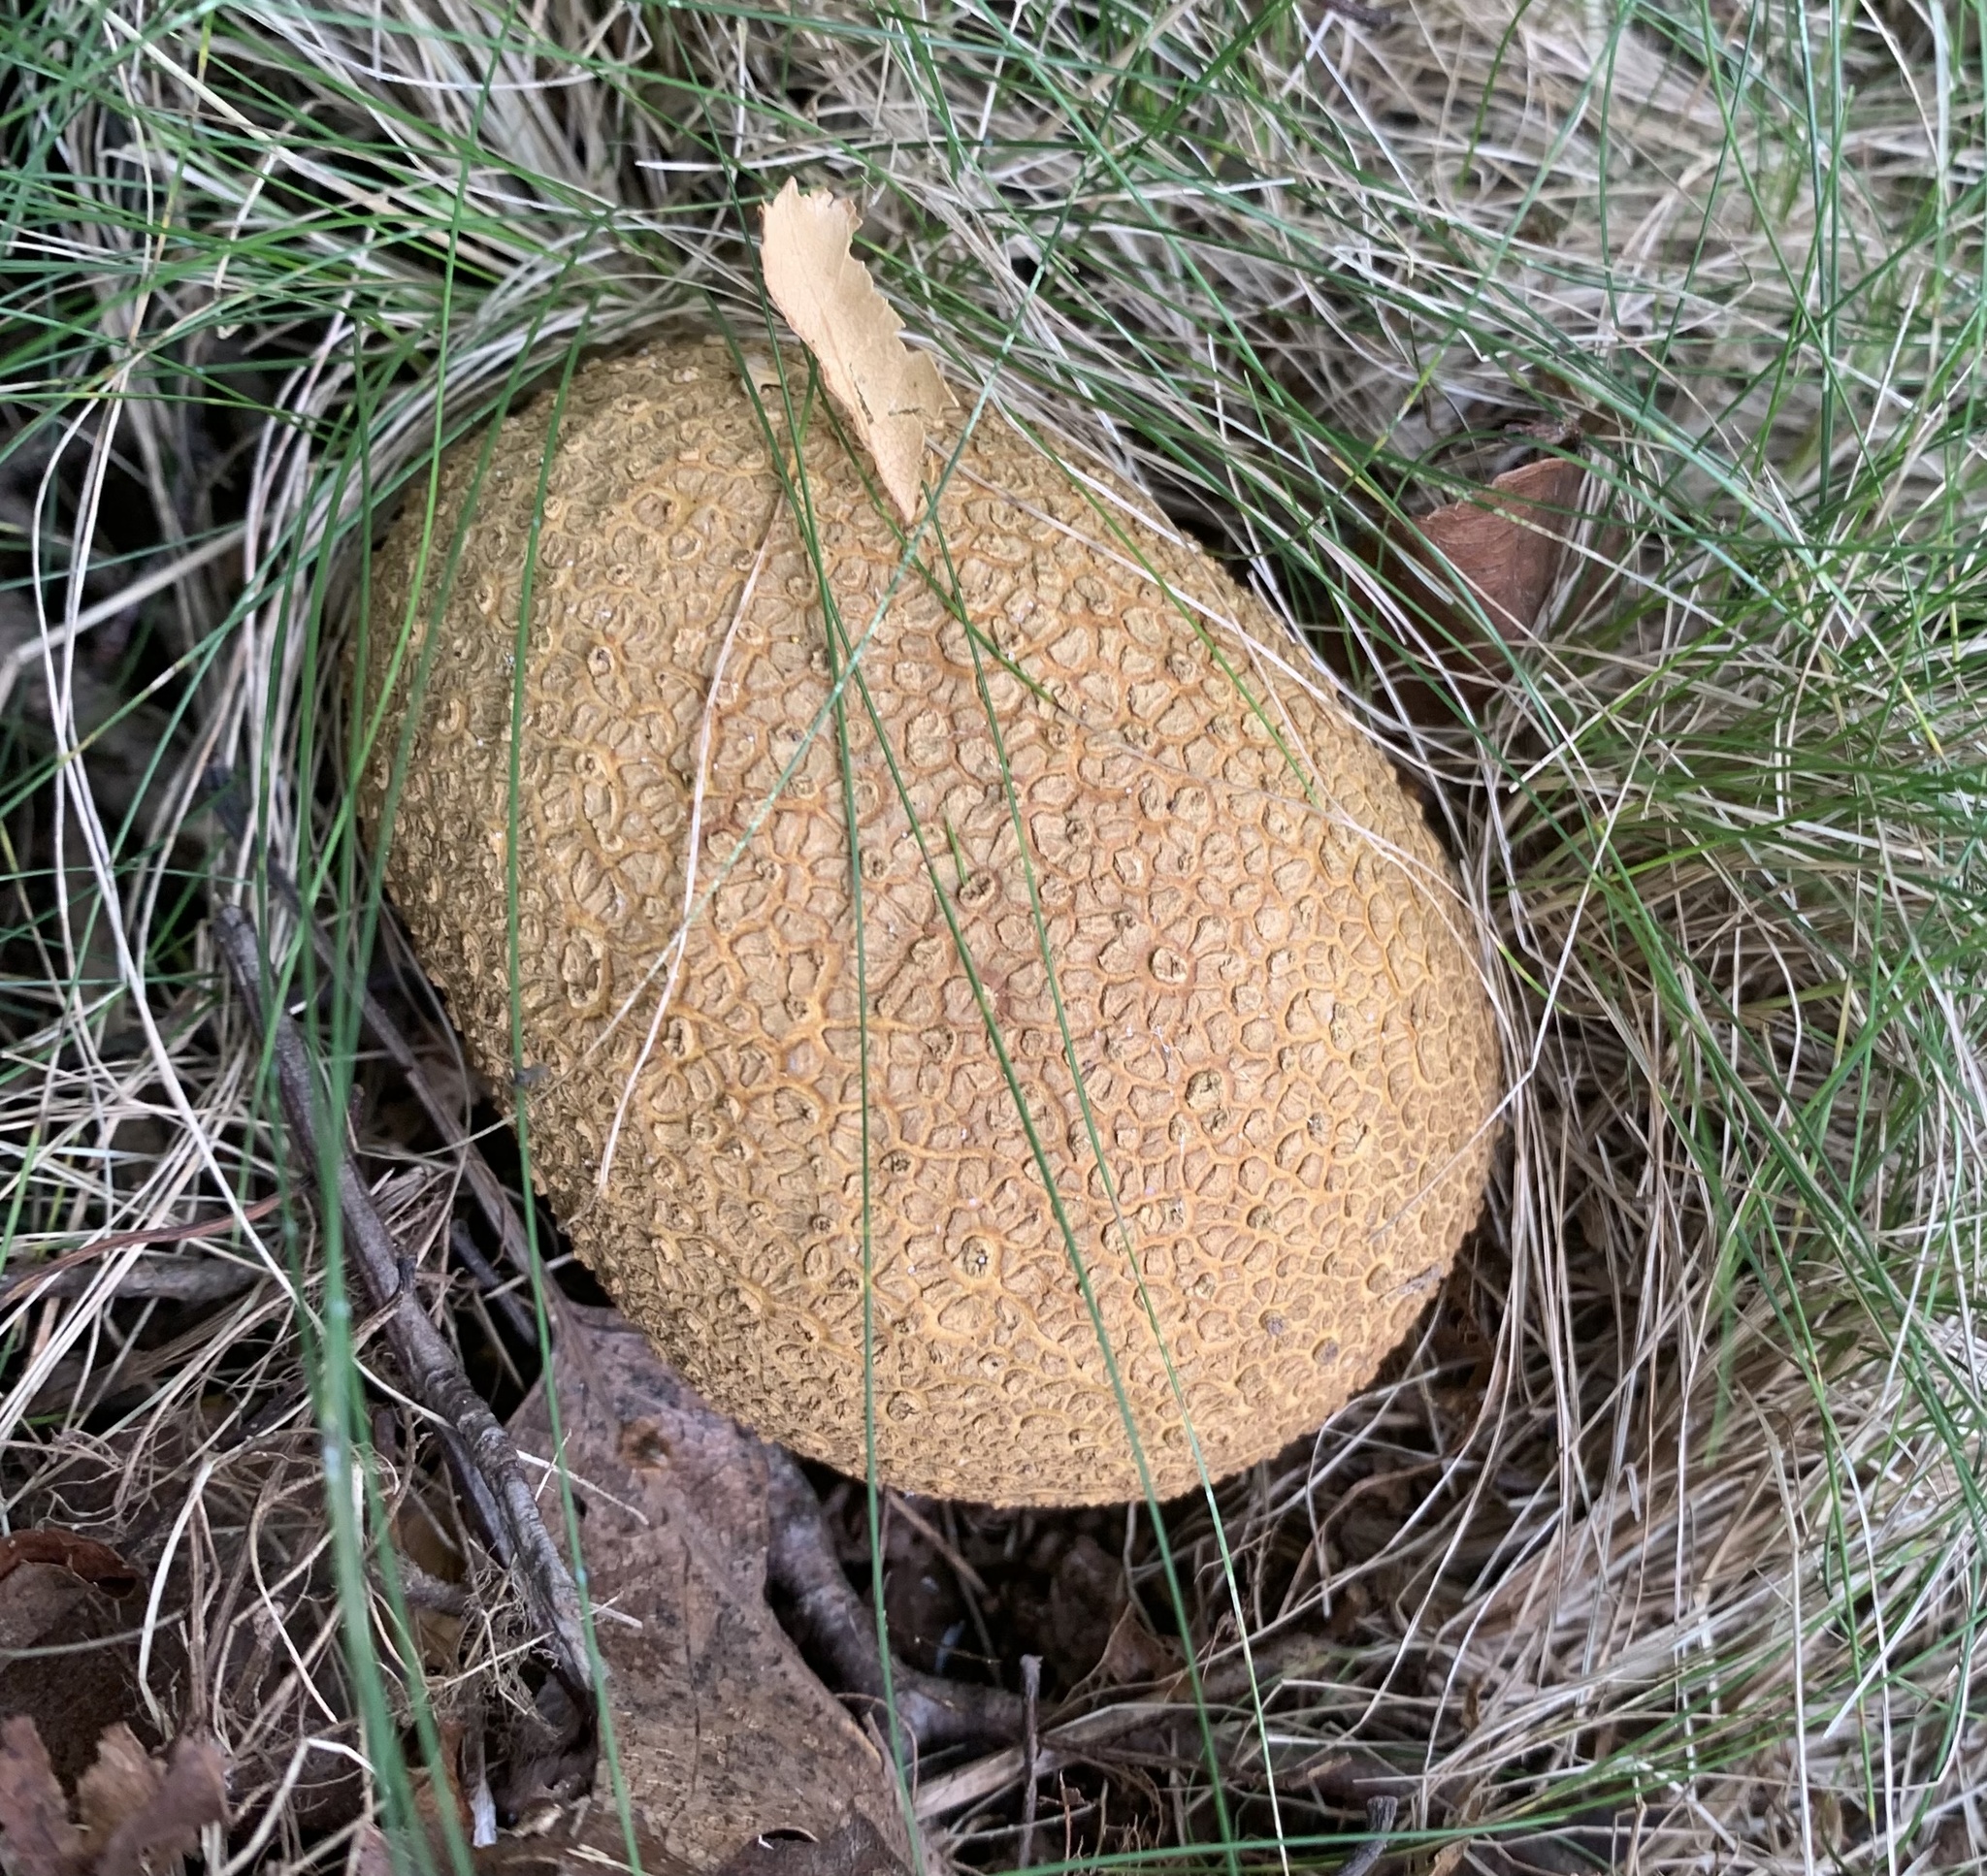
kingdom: Fungi
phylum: Basidiomycota
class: Agaricomycetes
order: Boletales
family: Sclerodermataceae
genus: Scleroderma
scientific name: Scleroderma citrinum
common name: Common earthball
